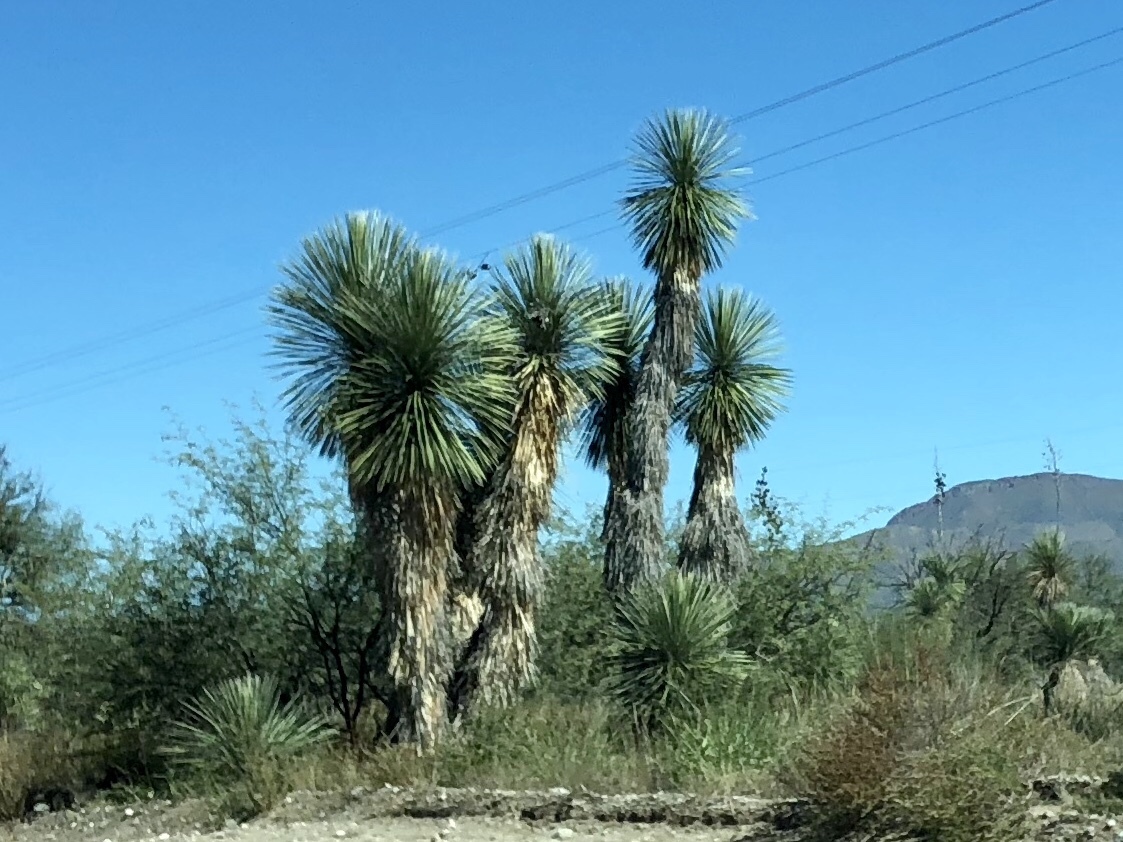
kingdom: Plantae
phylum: Tracheophyta
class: Liliopsida
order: Asparagales
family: Asparagaceae
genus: Yucca
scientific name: Yucca elata
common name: Palmella
